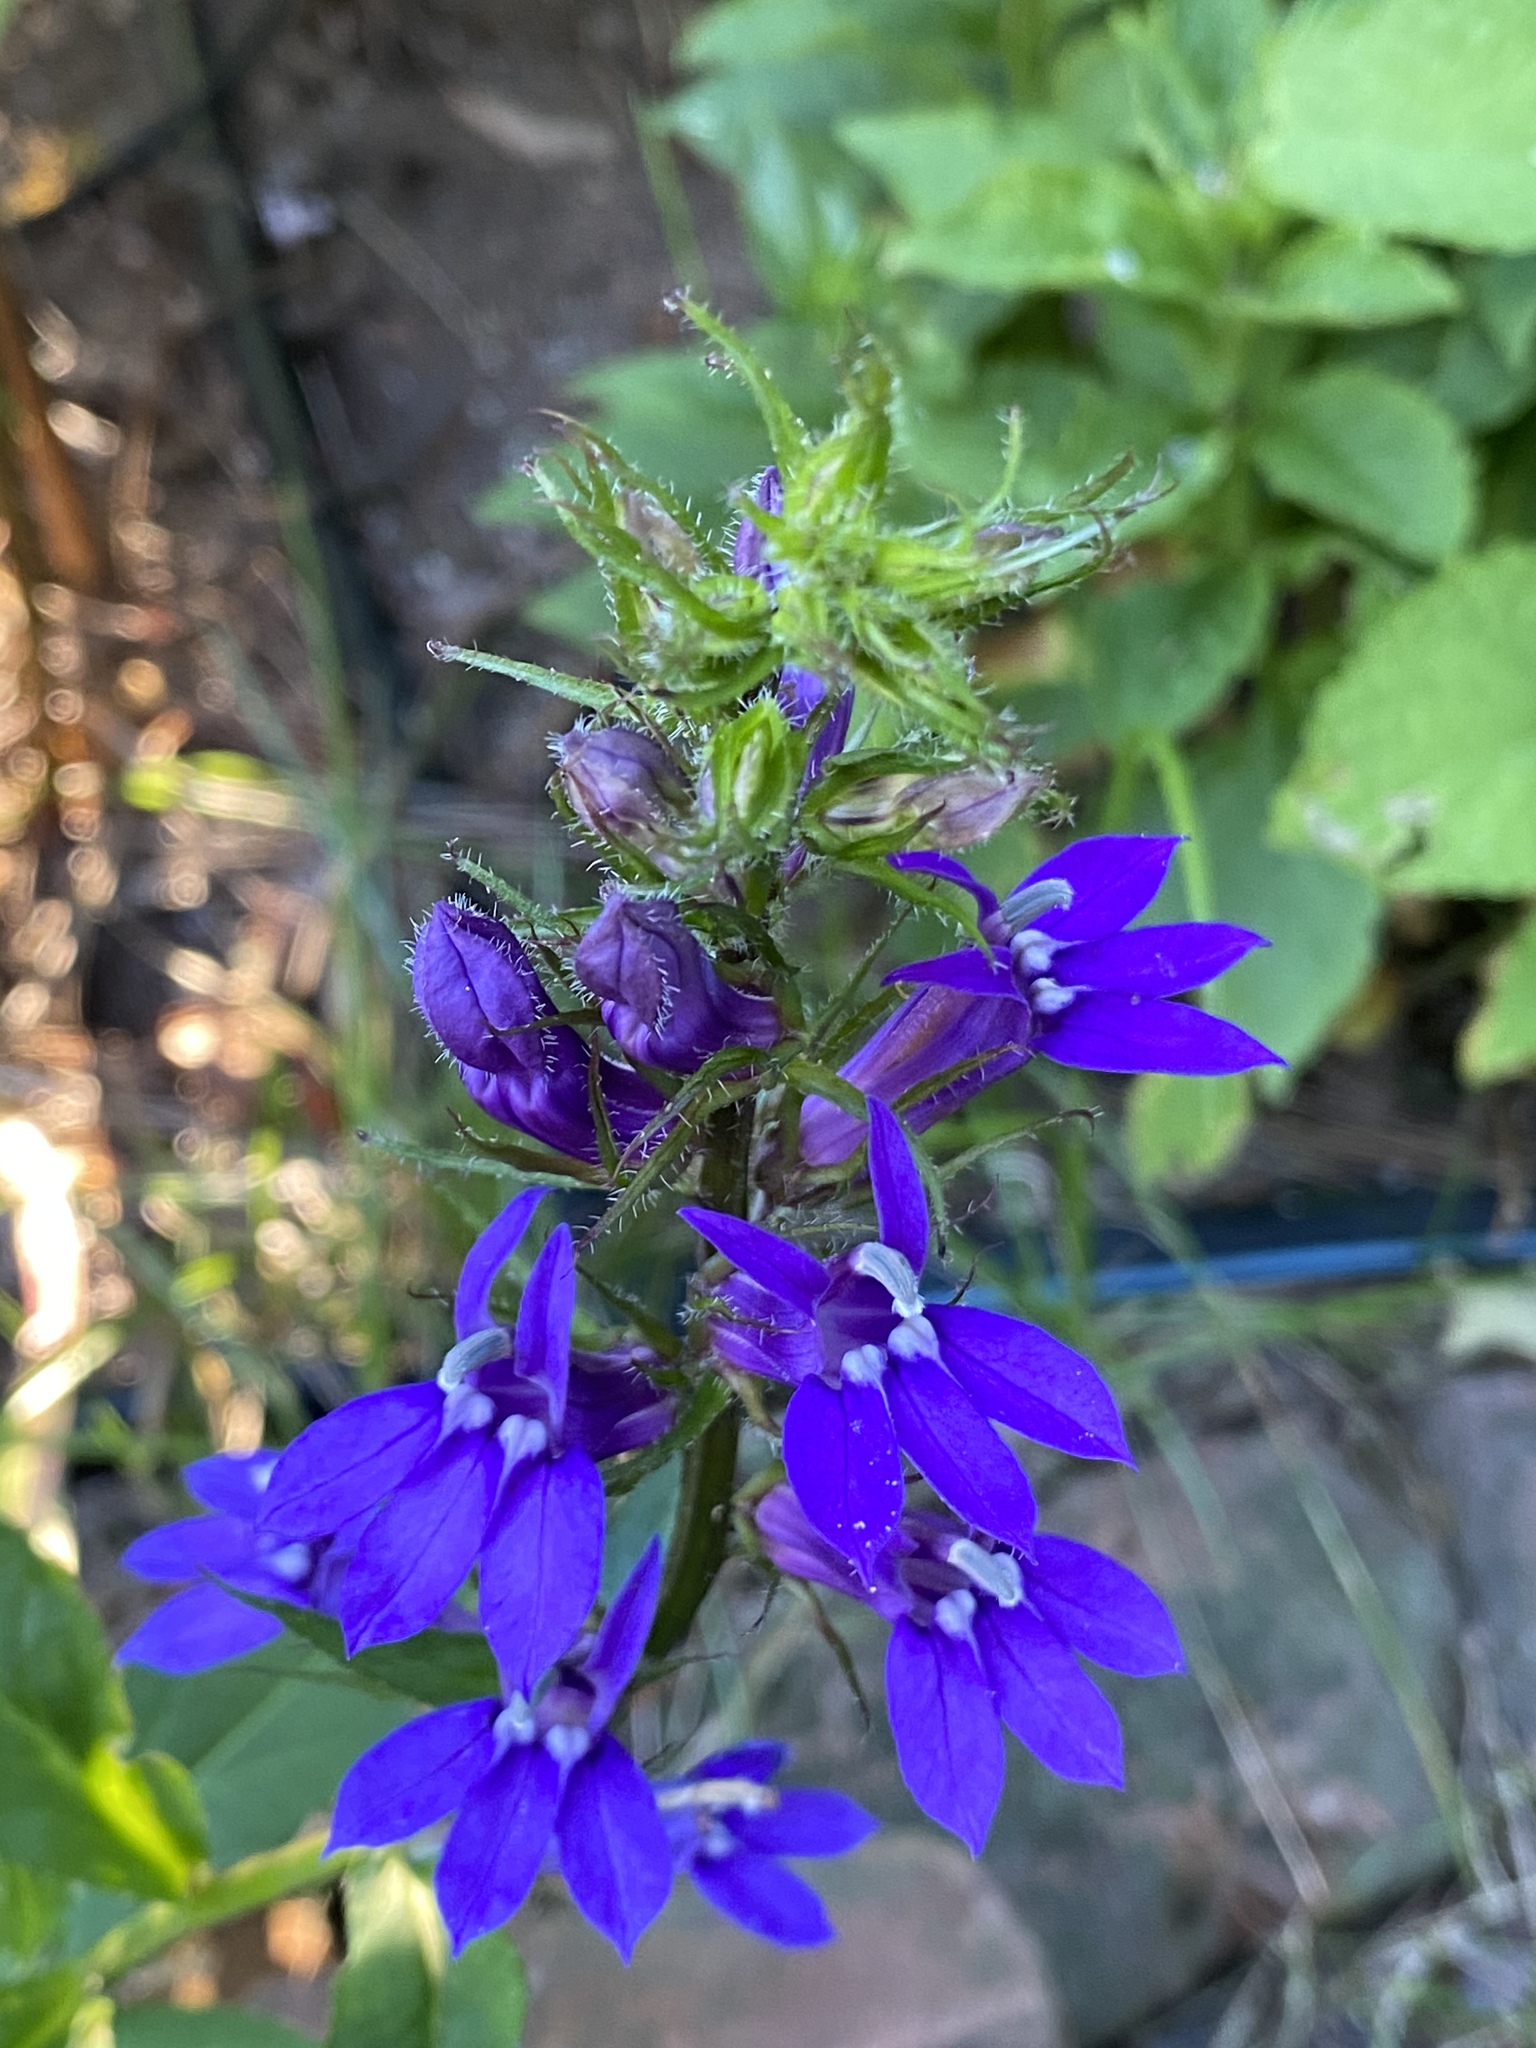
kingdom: Plantae
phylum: Tracheophyta
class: Magnoliopsida
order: Asterales
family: Campanulaceae
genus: Lobelia
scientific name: Lobelia siphilitica
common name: Great lobelia
